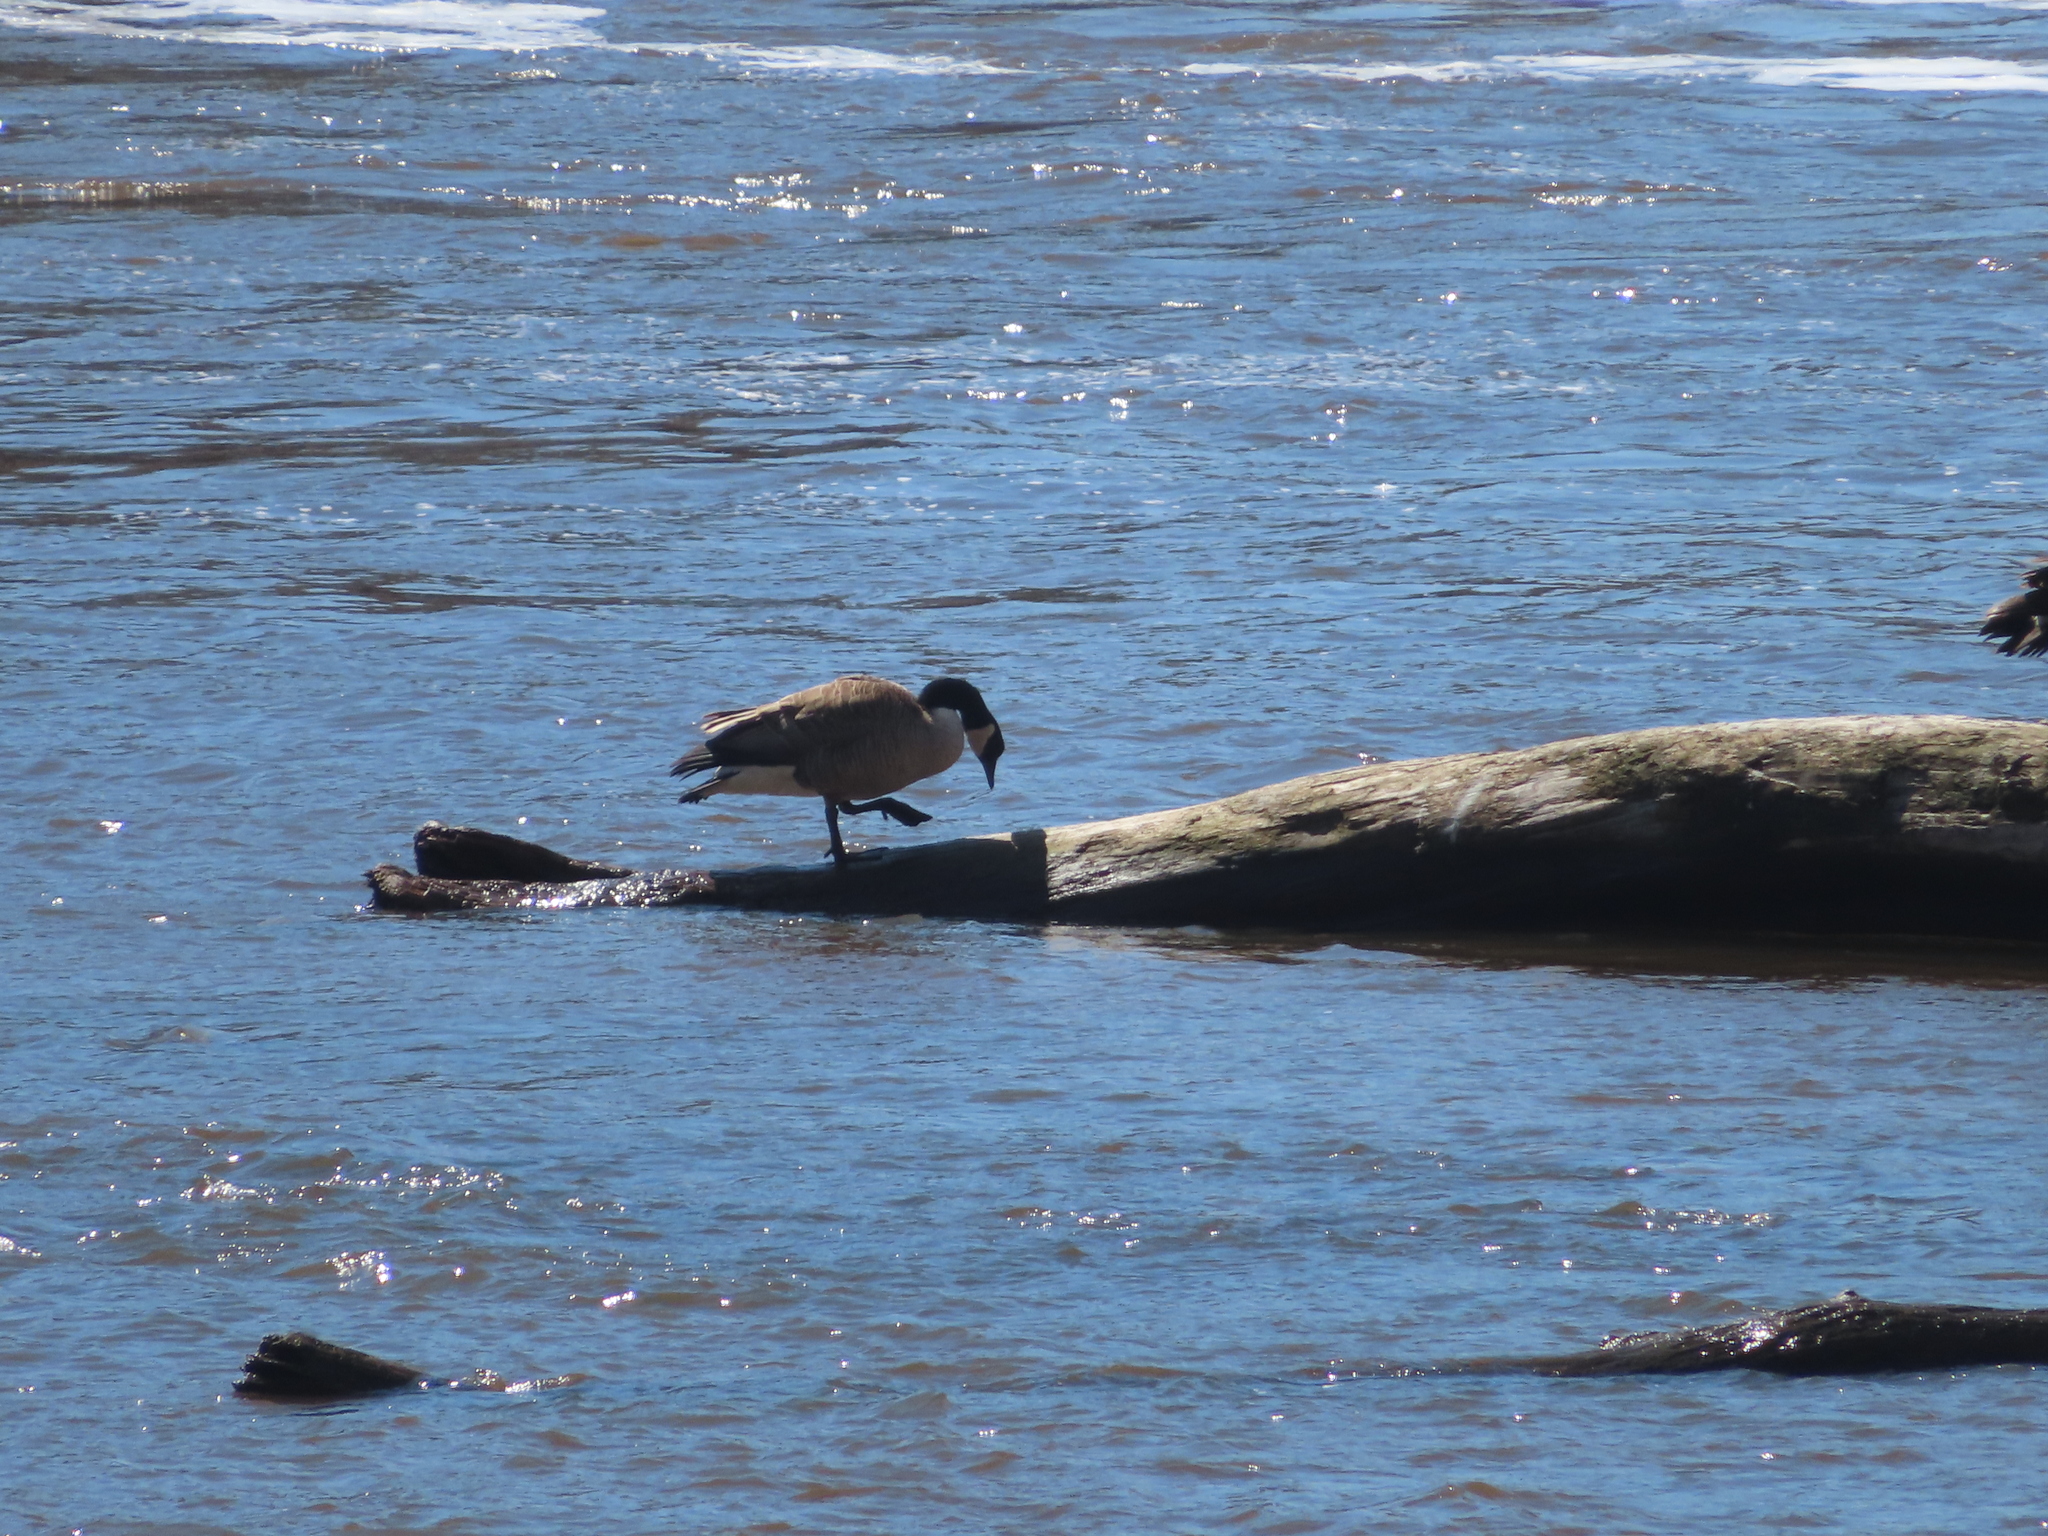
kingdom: Animalia
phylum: Chordata
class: Aves
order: Anseriformes
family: Anatidae
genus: Branta
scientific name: Branta canadensis
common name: Canada goose
